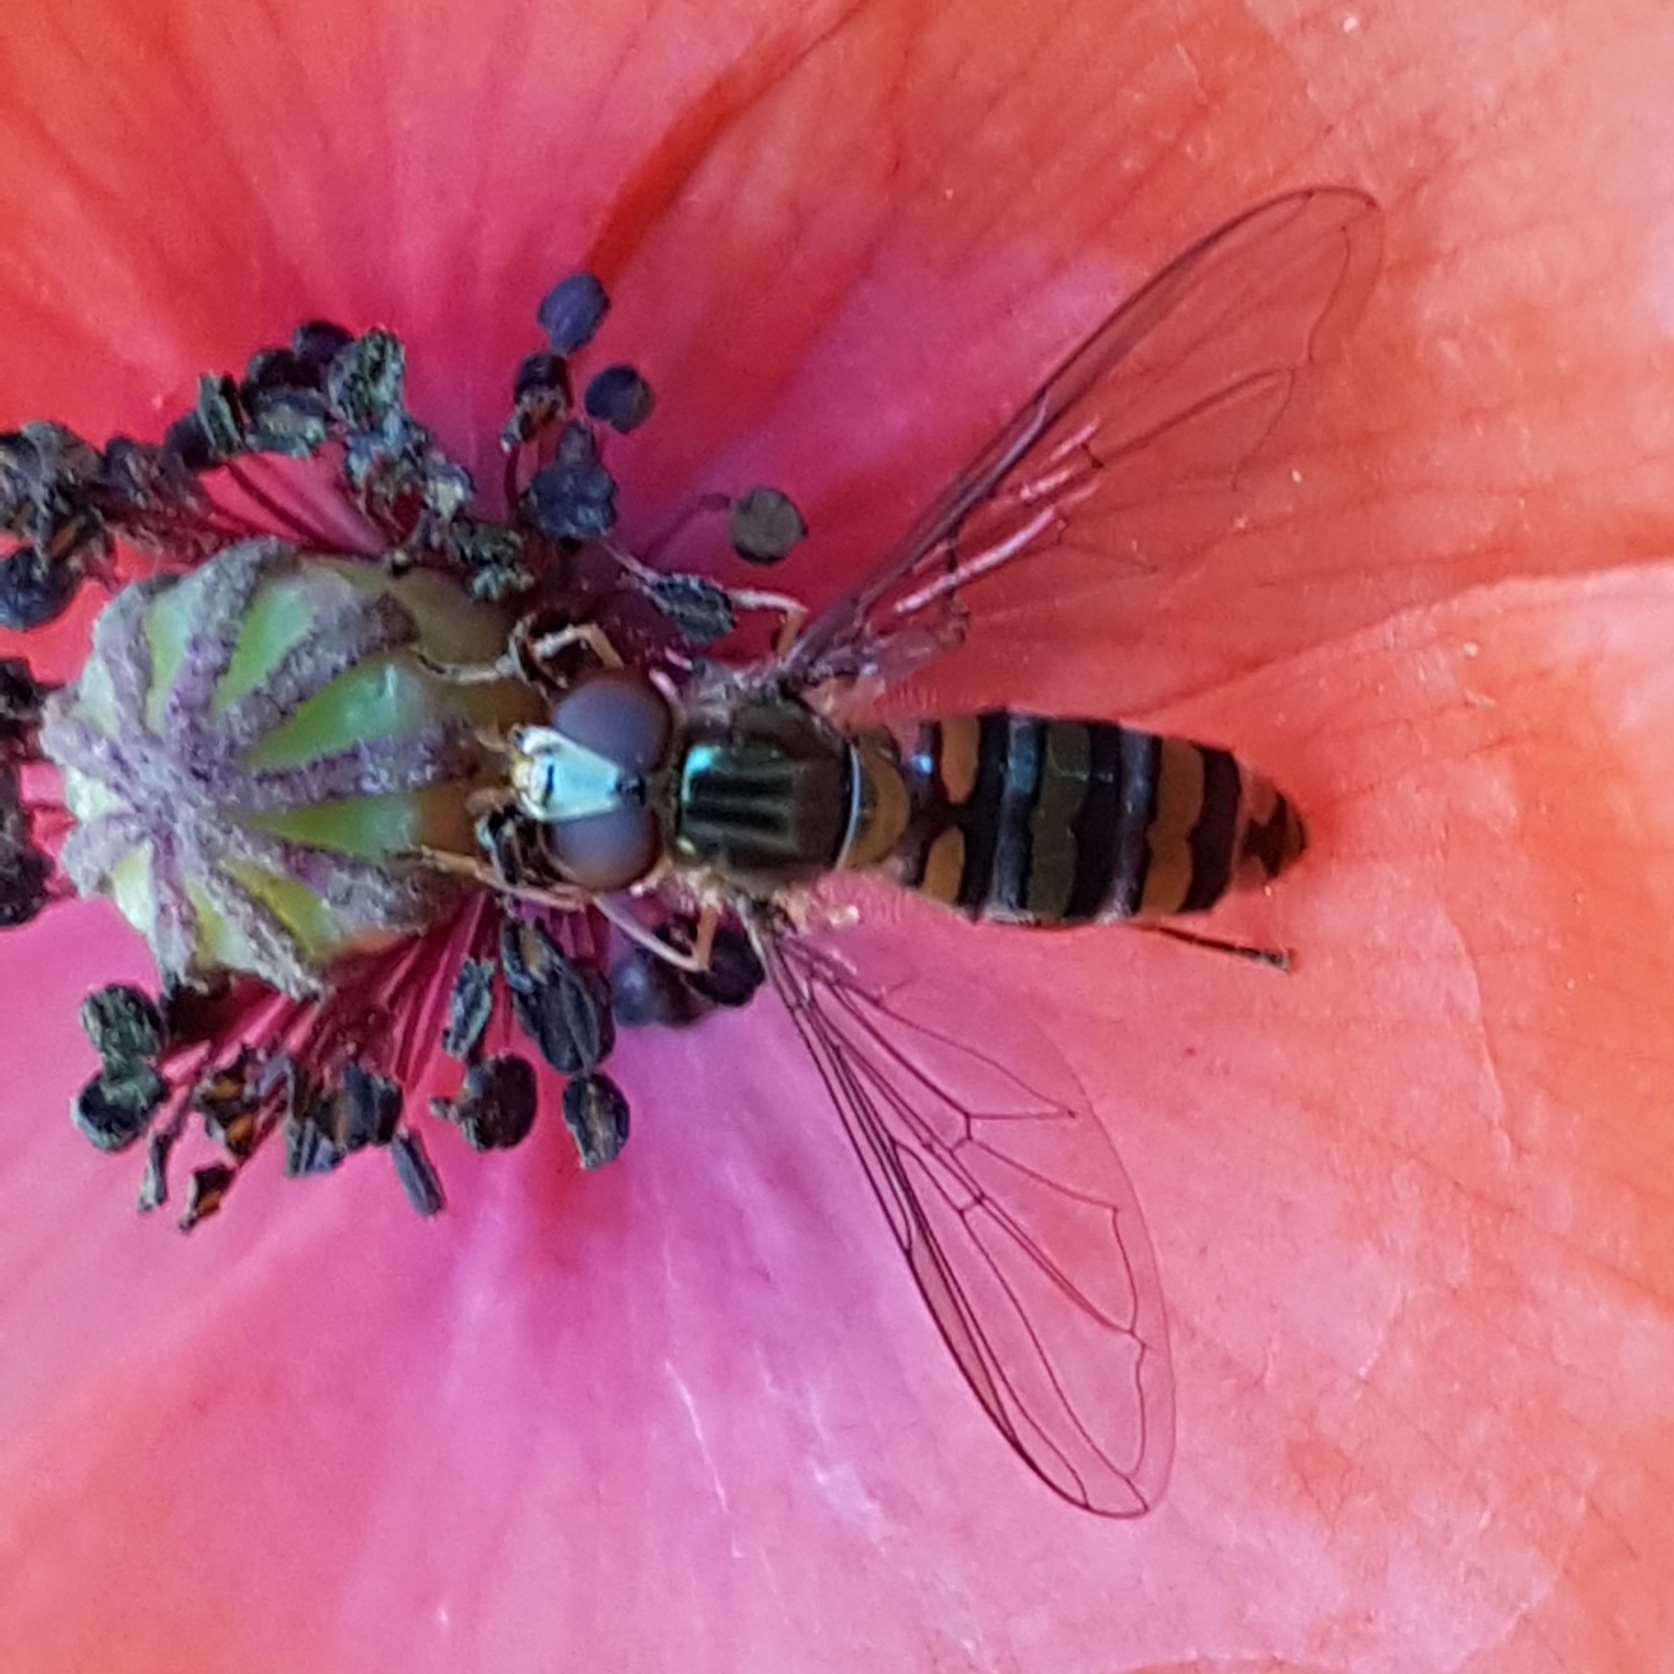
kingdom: Animalia
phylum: Arthropoda
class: Insecta
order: Diptera
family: Syrphidae
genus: Episyrphus
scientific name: Episyrphus balteatus
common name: Marmalade hoverfly
